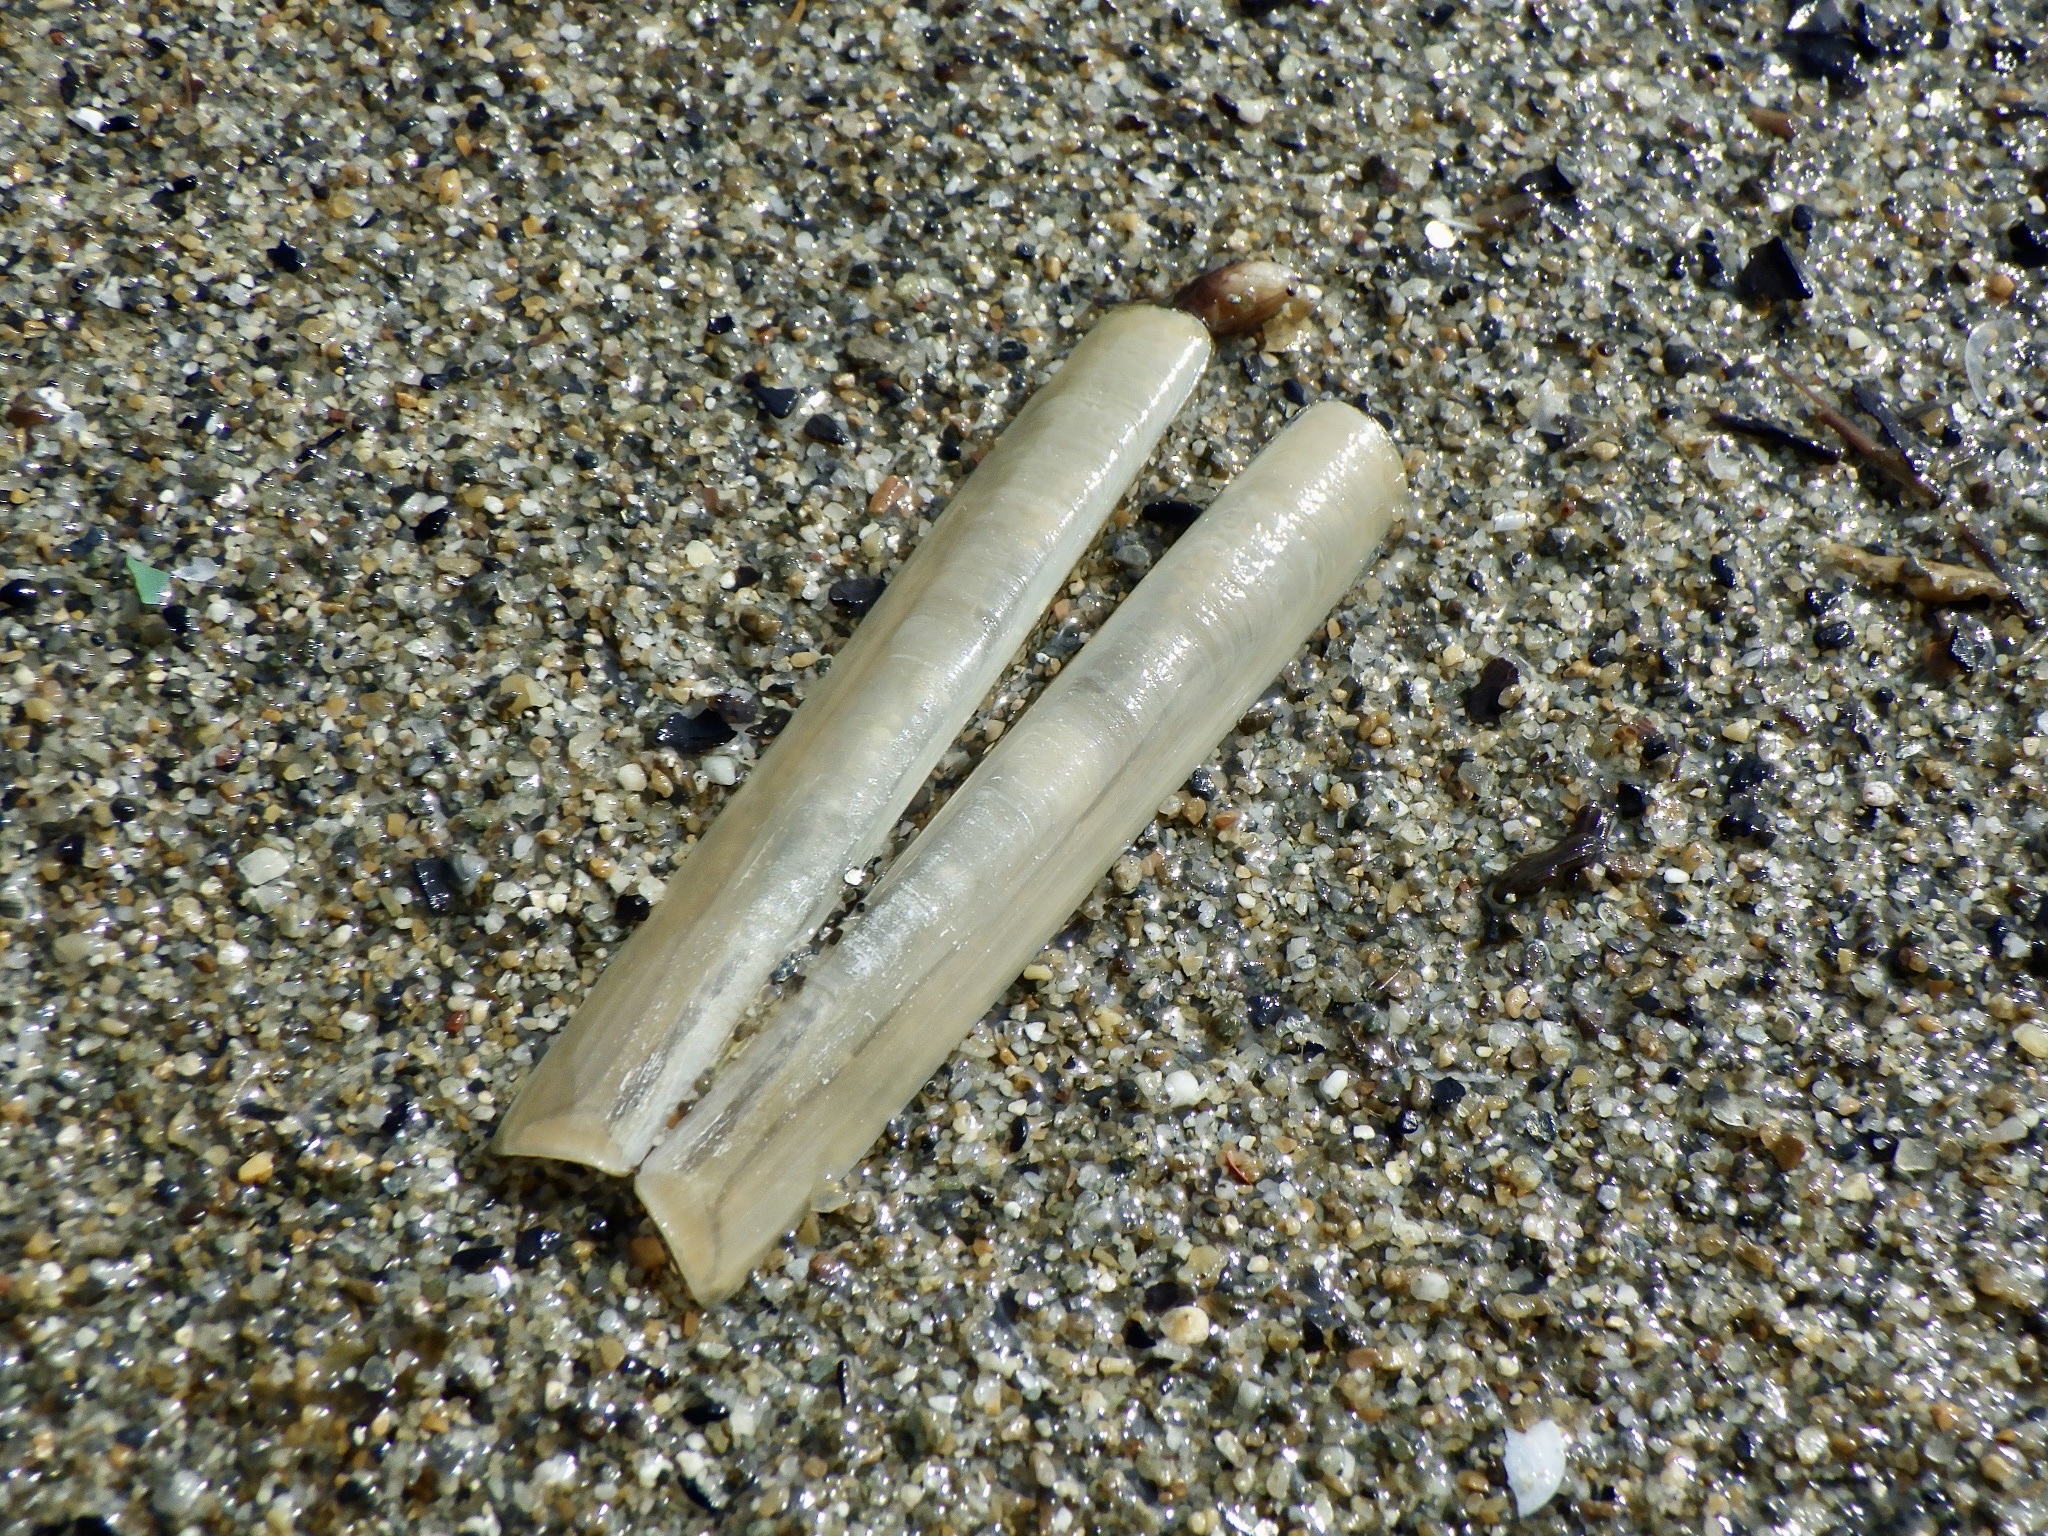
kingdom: Animalia
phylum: Mollusca
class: Bivalvia
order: Adapedonta
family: Solenidae
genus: Solen
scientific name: Solen strictus
